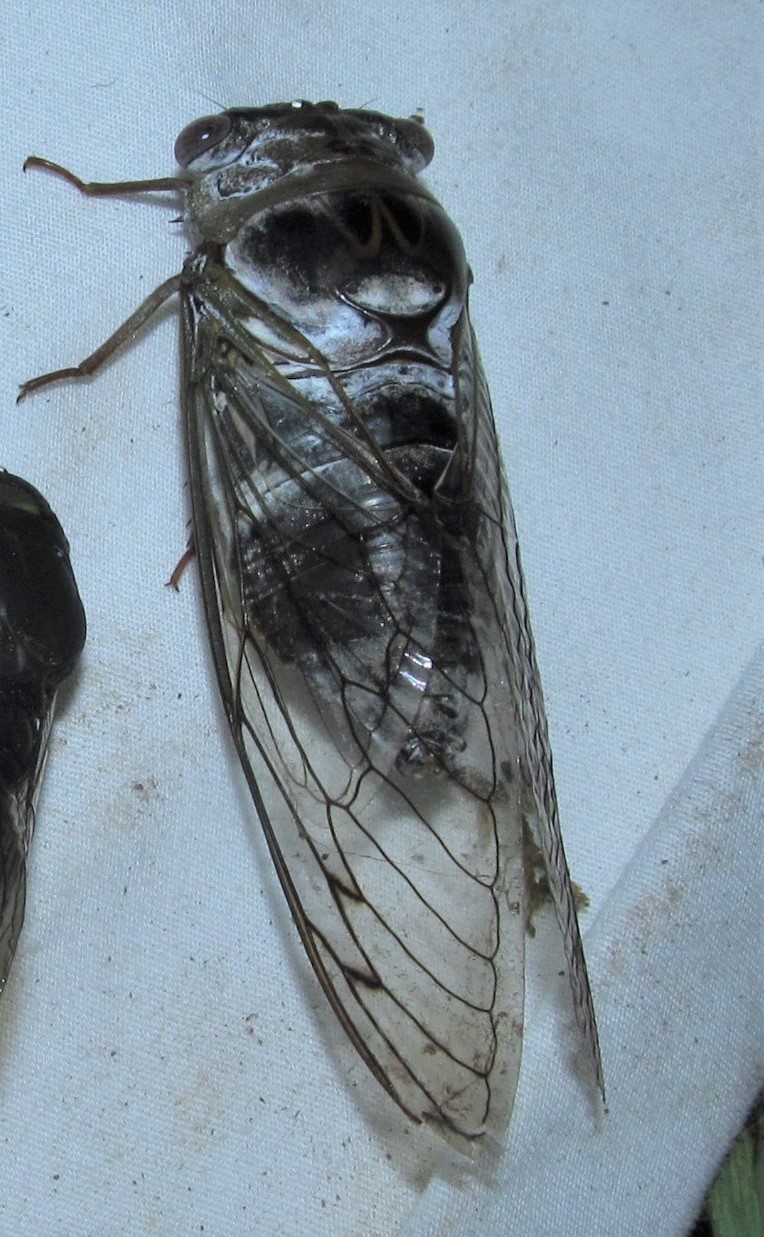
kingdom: Animalia
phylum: Arthropoda
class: Insecta
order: Hemiptera
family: Cicadidae
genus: Diceroprocta
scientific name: Diceroprocta grossa
